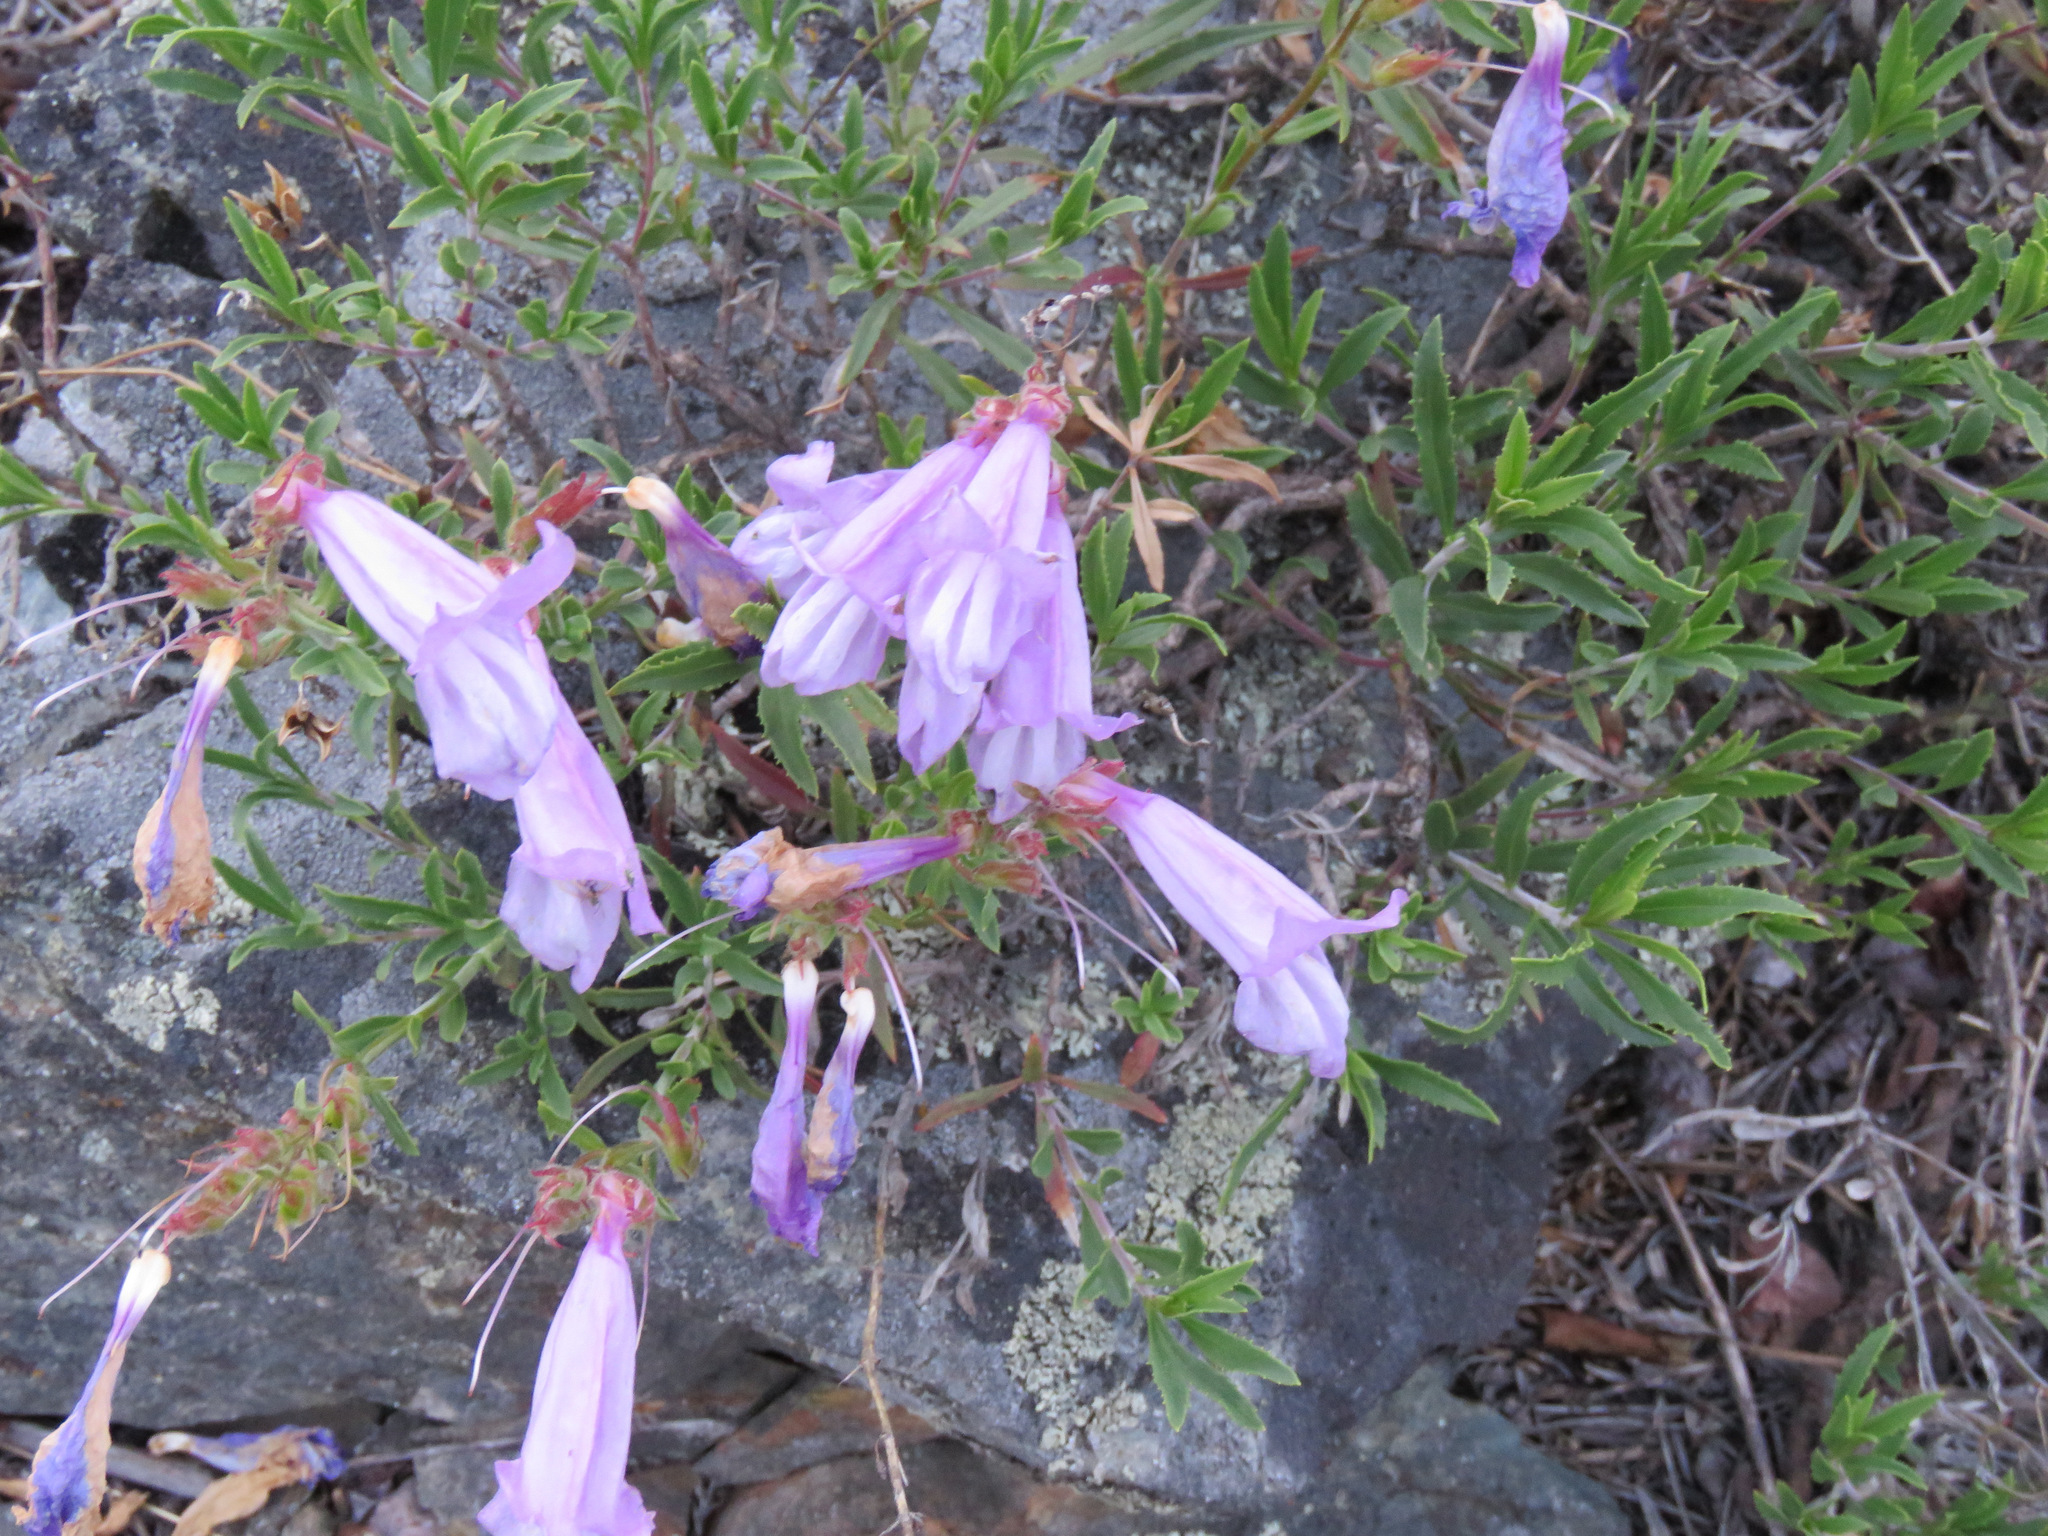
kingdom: Plantae
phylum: Tracheophyta
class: Magnoliopsida
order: Lamiales
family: Plantaginaceae
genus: Penstemon
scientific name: Penstemon fruticosus
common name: Bush penstemon
